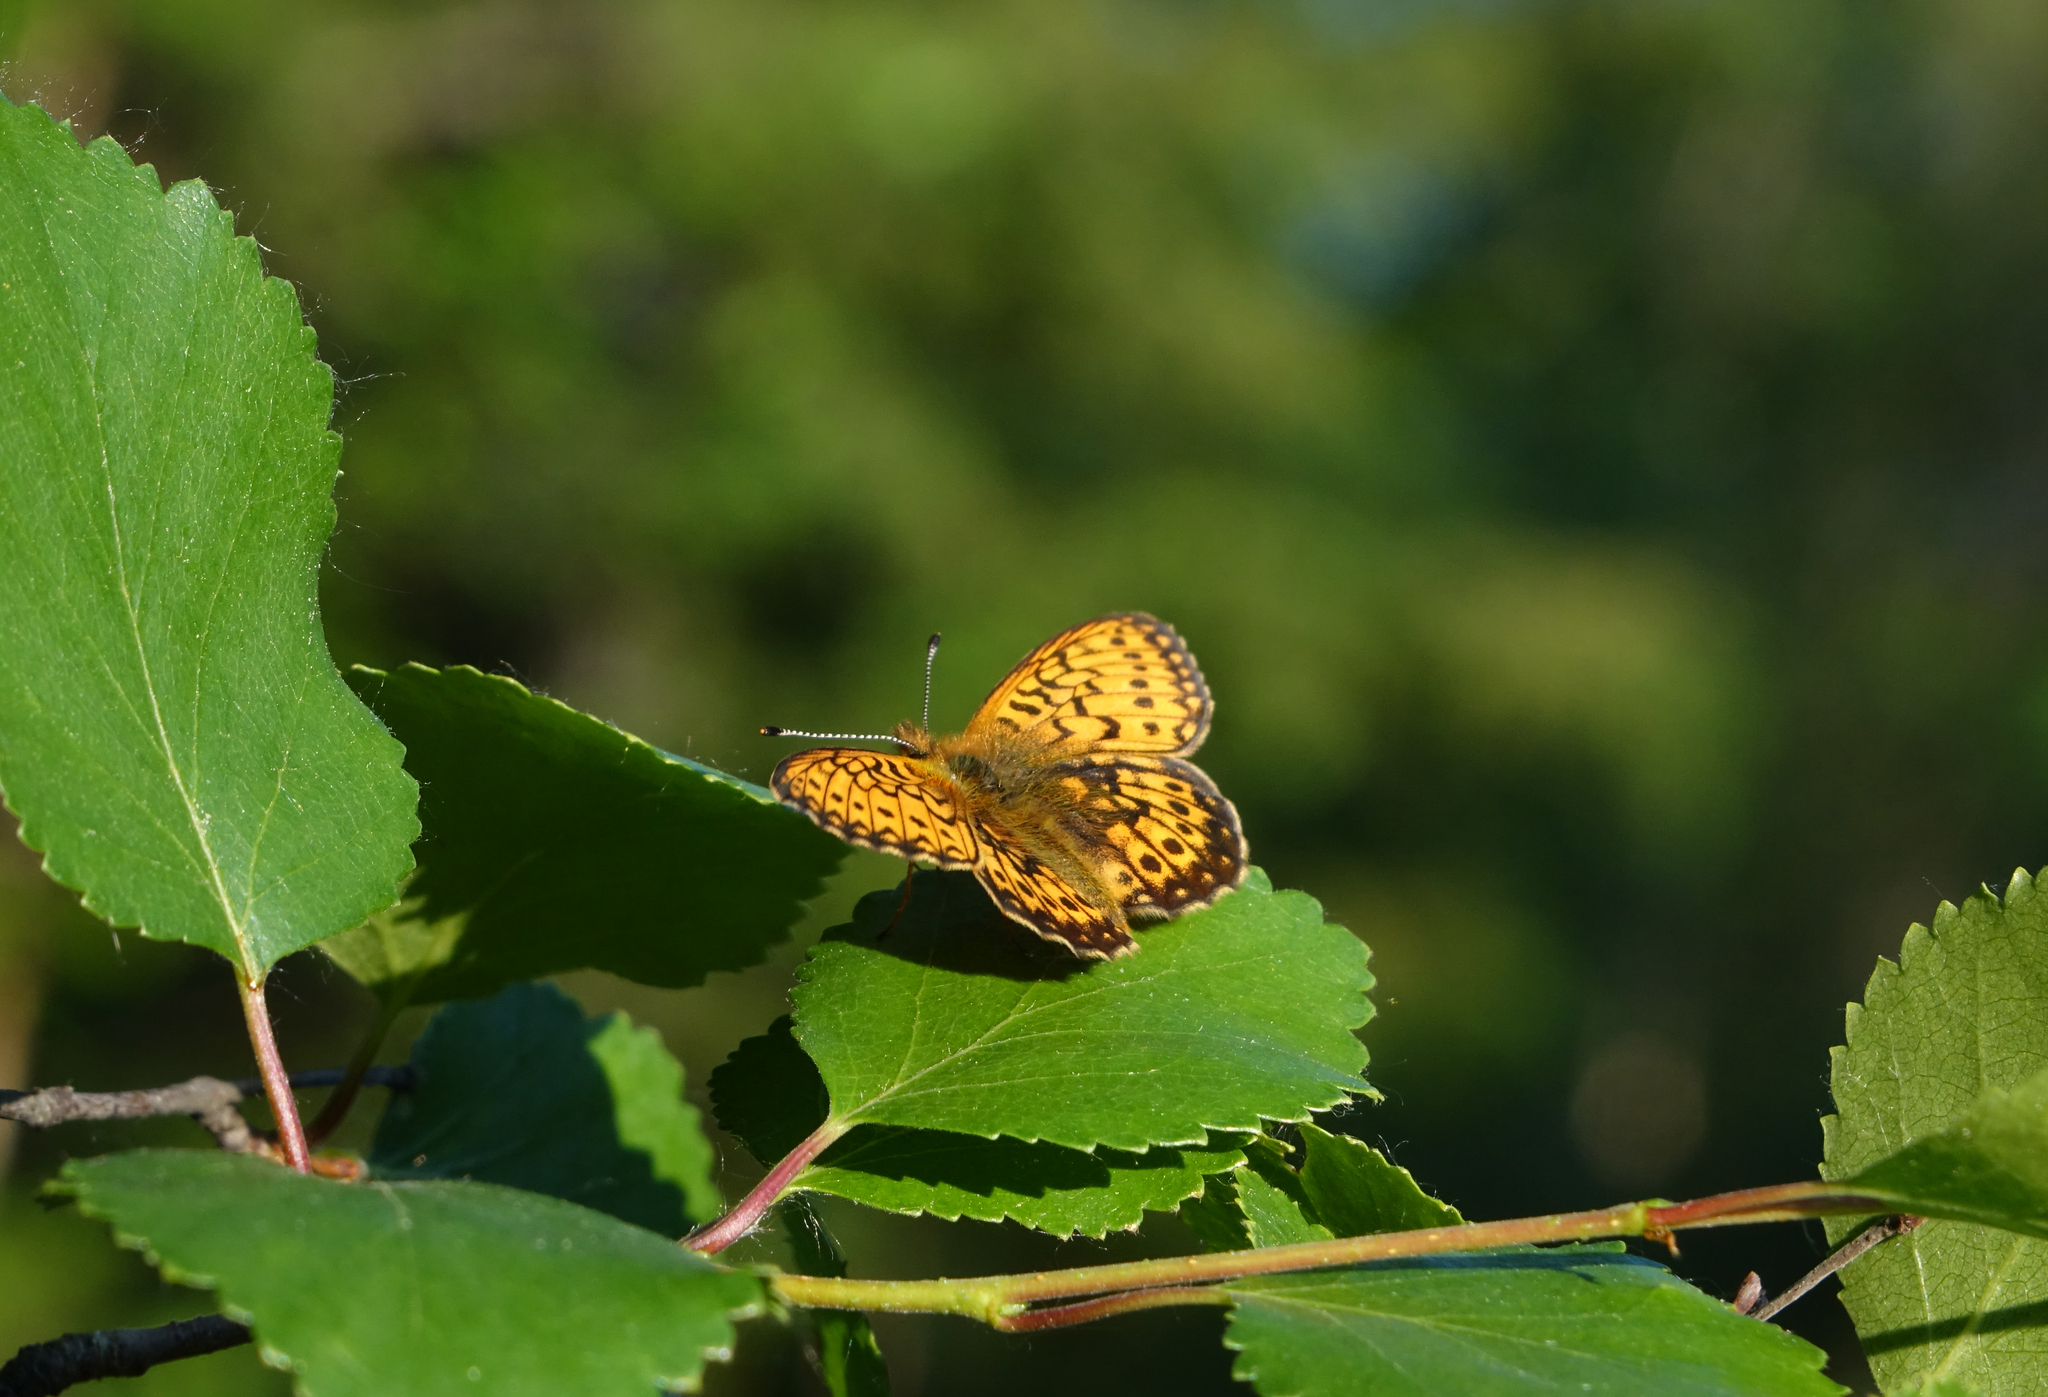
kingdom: Animalia
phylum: Arthropoda
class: Insecta
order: Lepidoptera
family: Nymphalidae
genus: Boloria
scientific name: Boloria eunomia
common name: Bog fritillary
